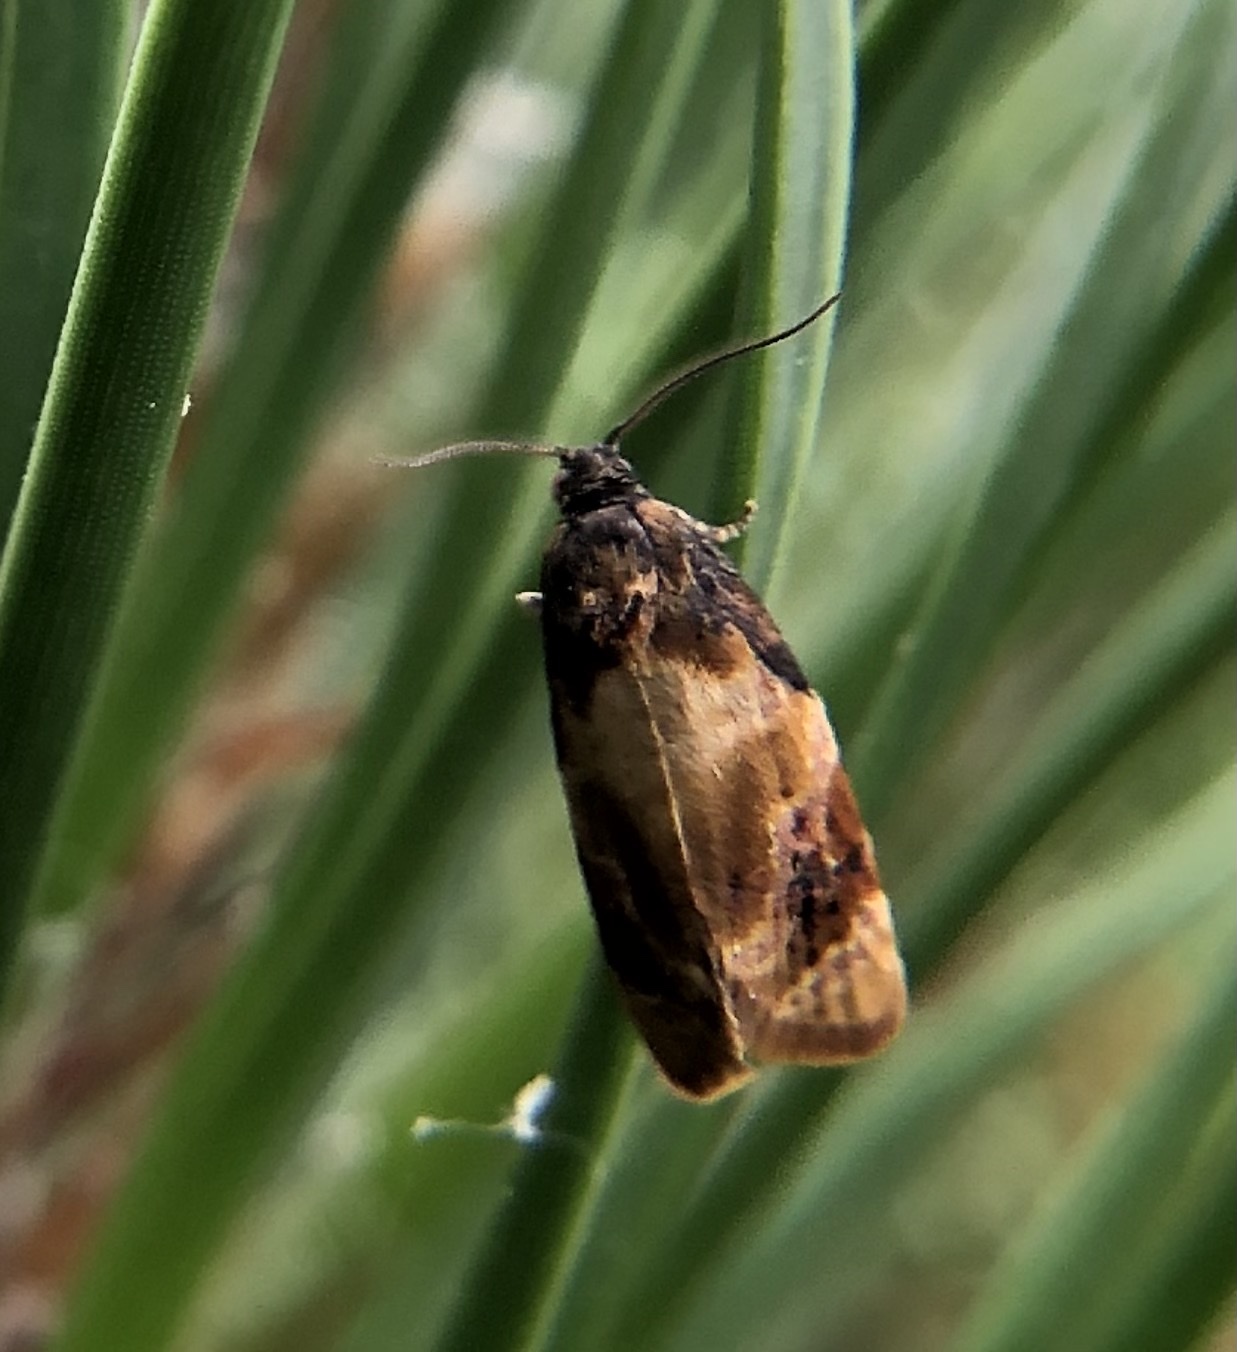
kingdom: Animalia
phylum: Arthropoda
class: Insecta
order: Lepidoptera
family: Tortricidae
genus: Ditula
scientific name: Ditula angustiorana
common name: Red-barred tortrix
